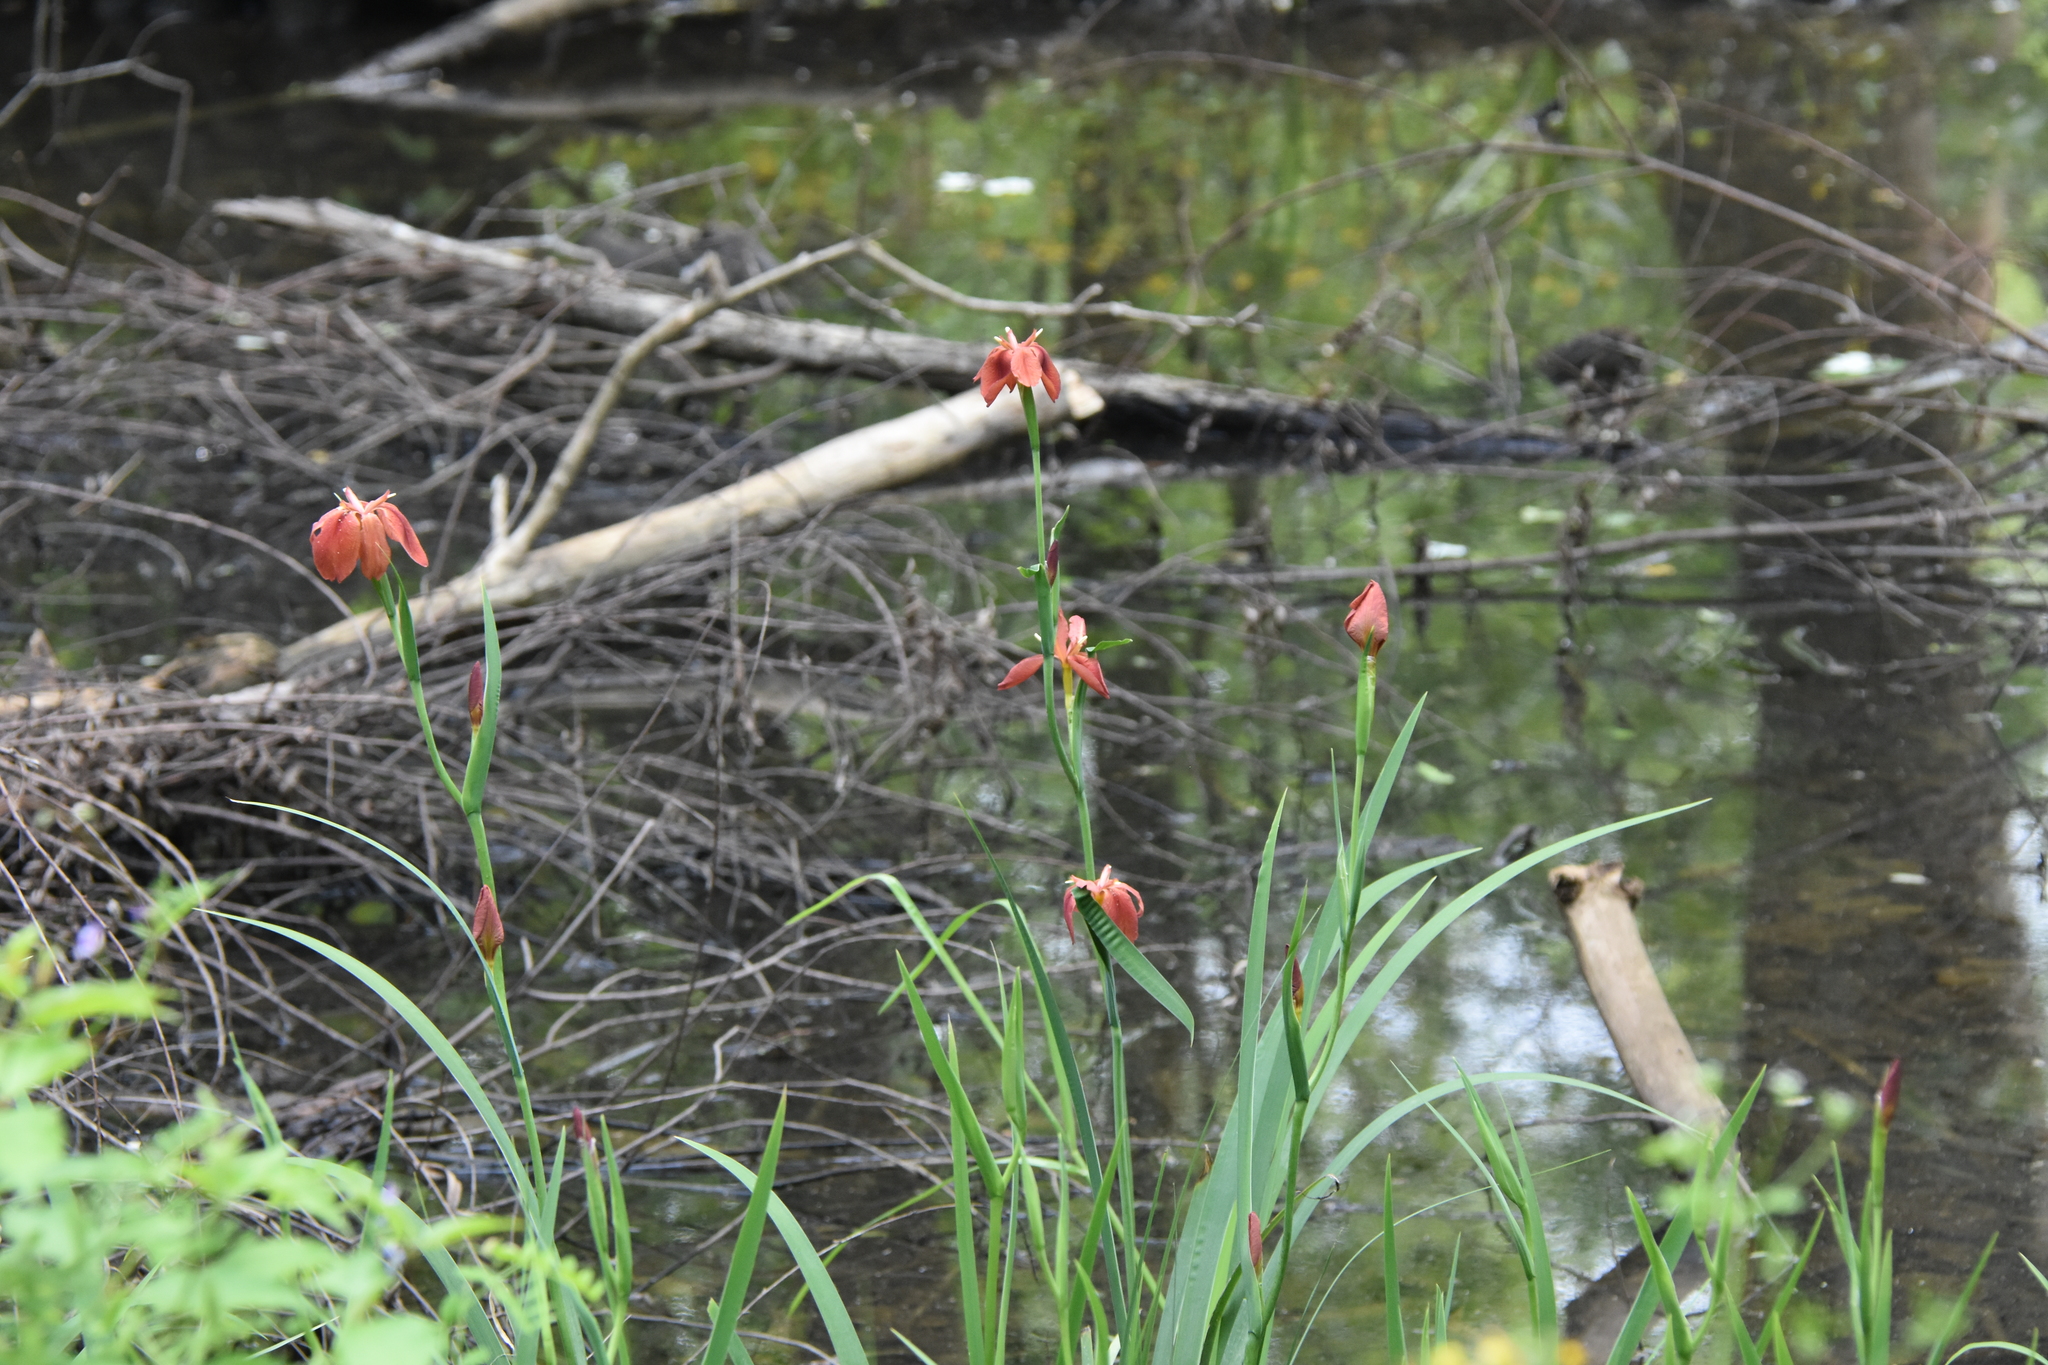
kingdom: Plantae
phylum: Tracheophyta
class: Liliopsida
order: Asparagales
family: Iridaceae
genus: Iris
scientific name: Iris fulva
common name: Copper iris
